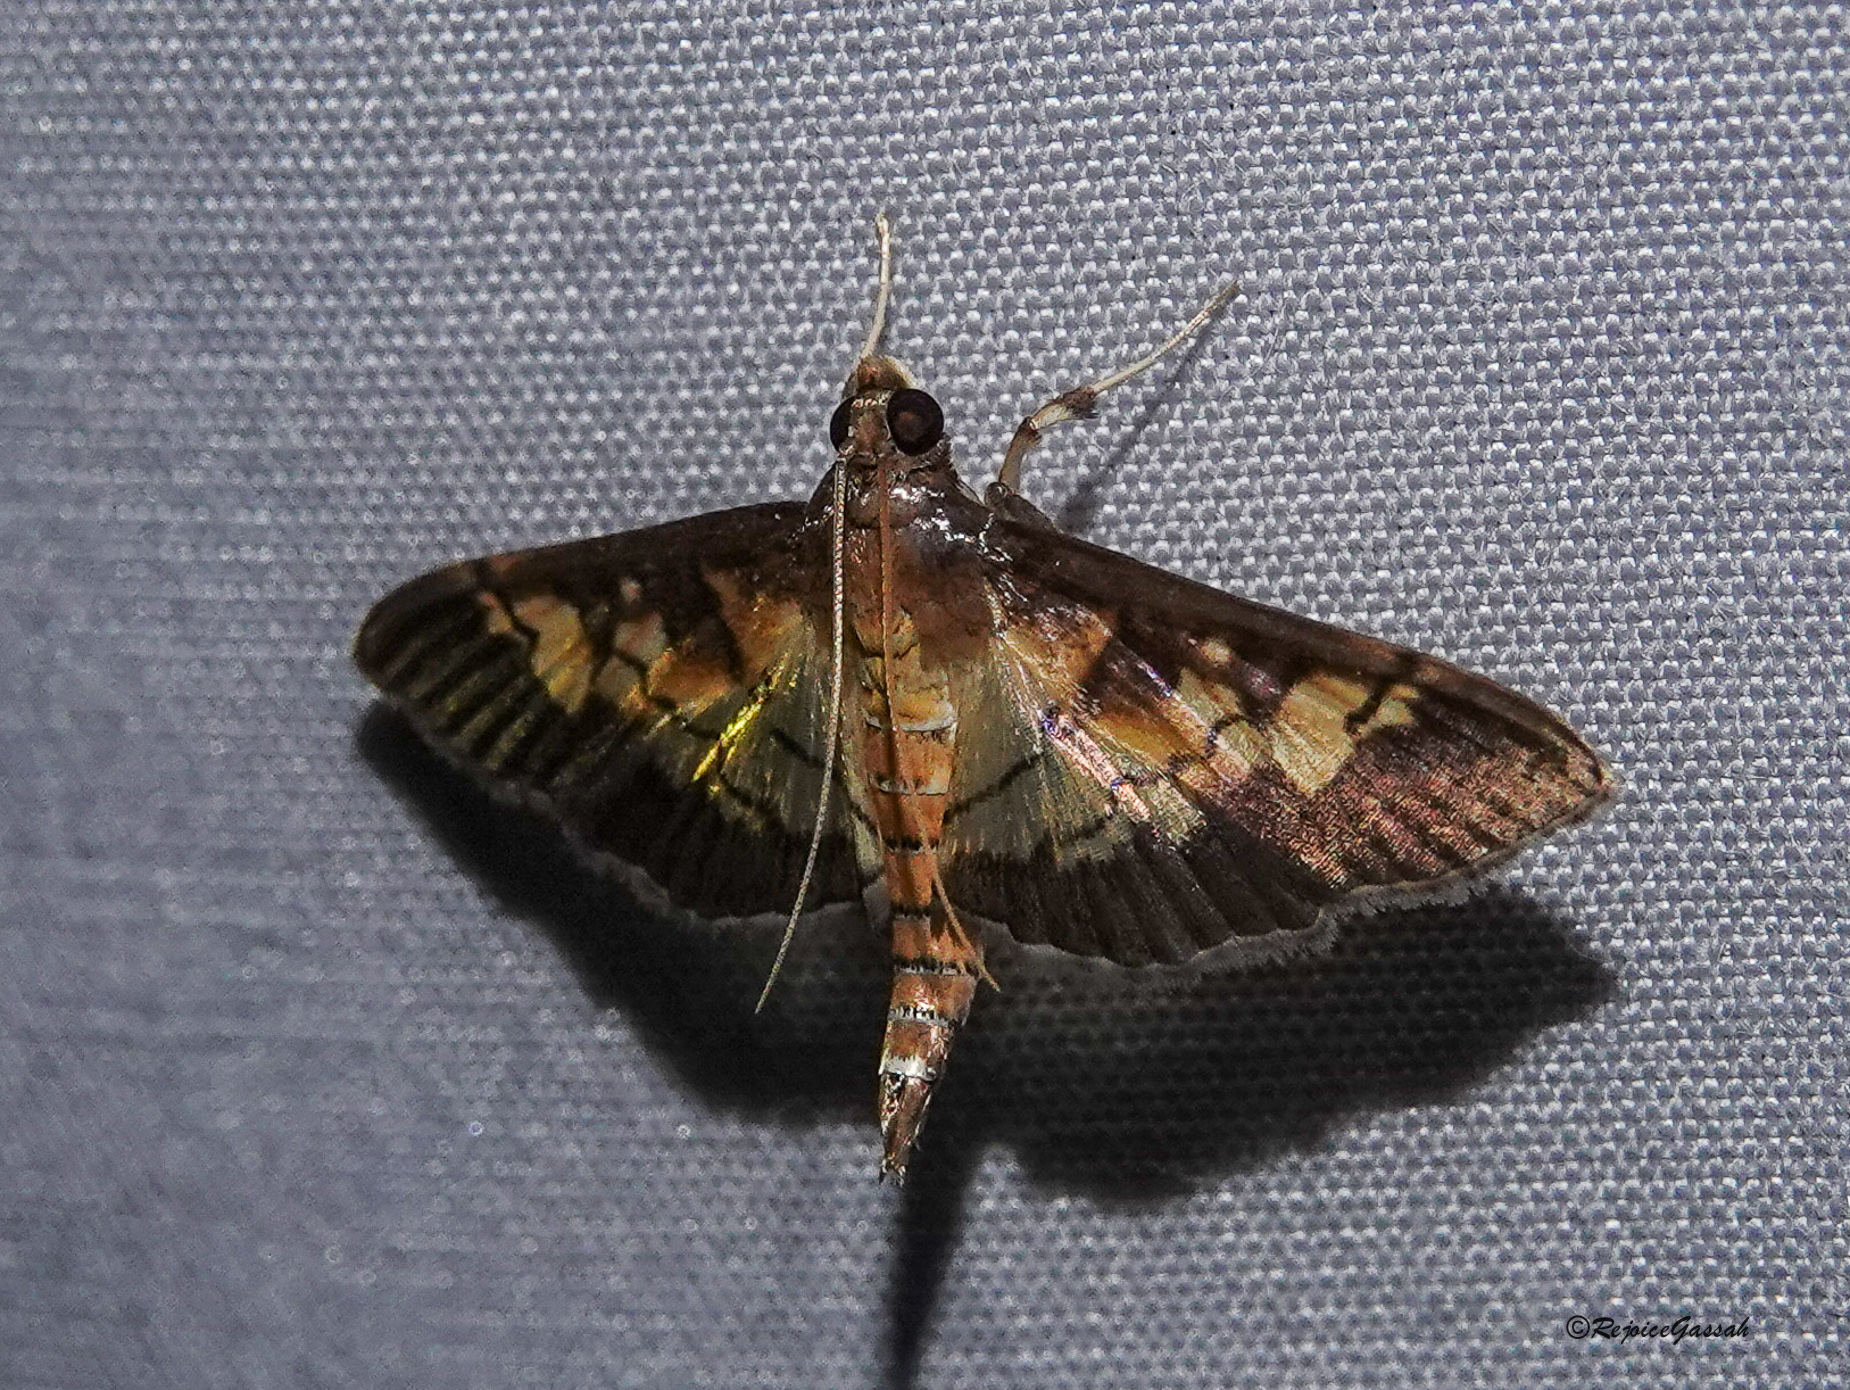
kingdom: Animalia
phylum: Arthropoda
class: Insecta
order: Lepidoptera
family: Crambidae
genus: Uresiphita
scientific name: Uresiphita quinquigera
